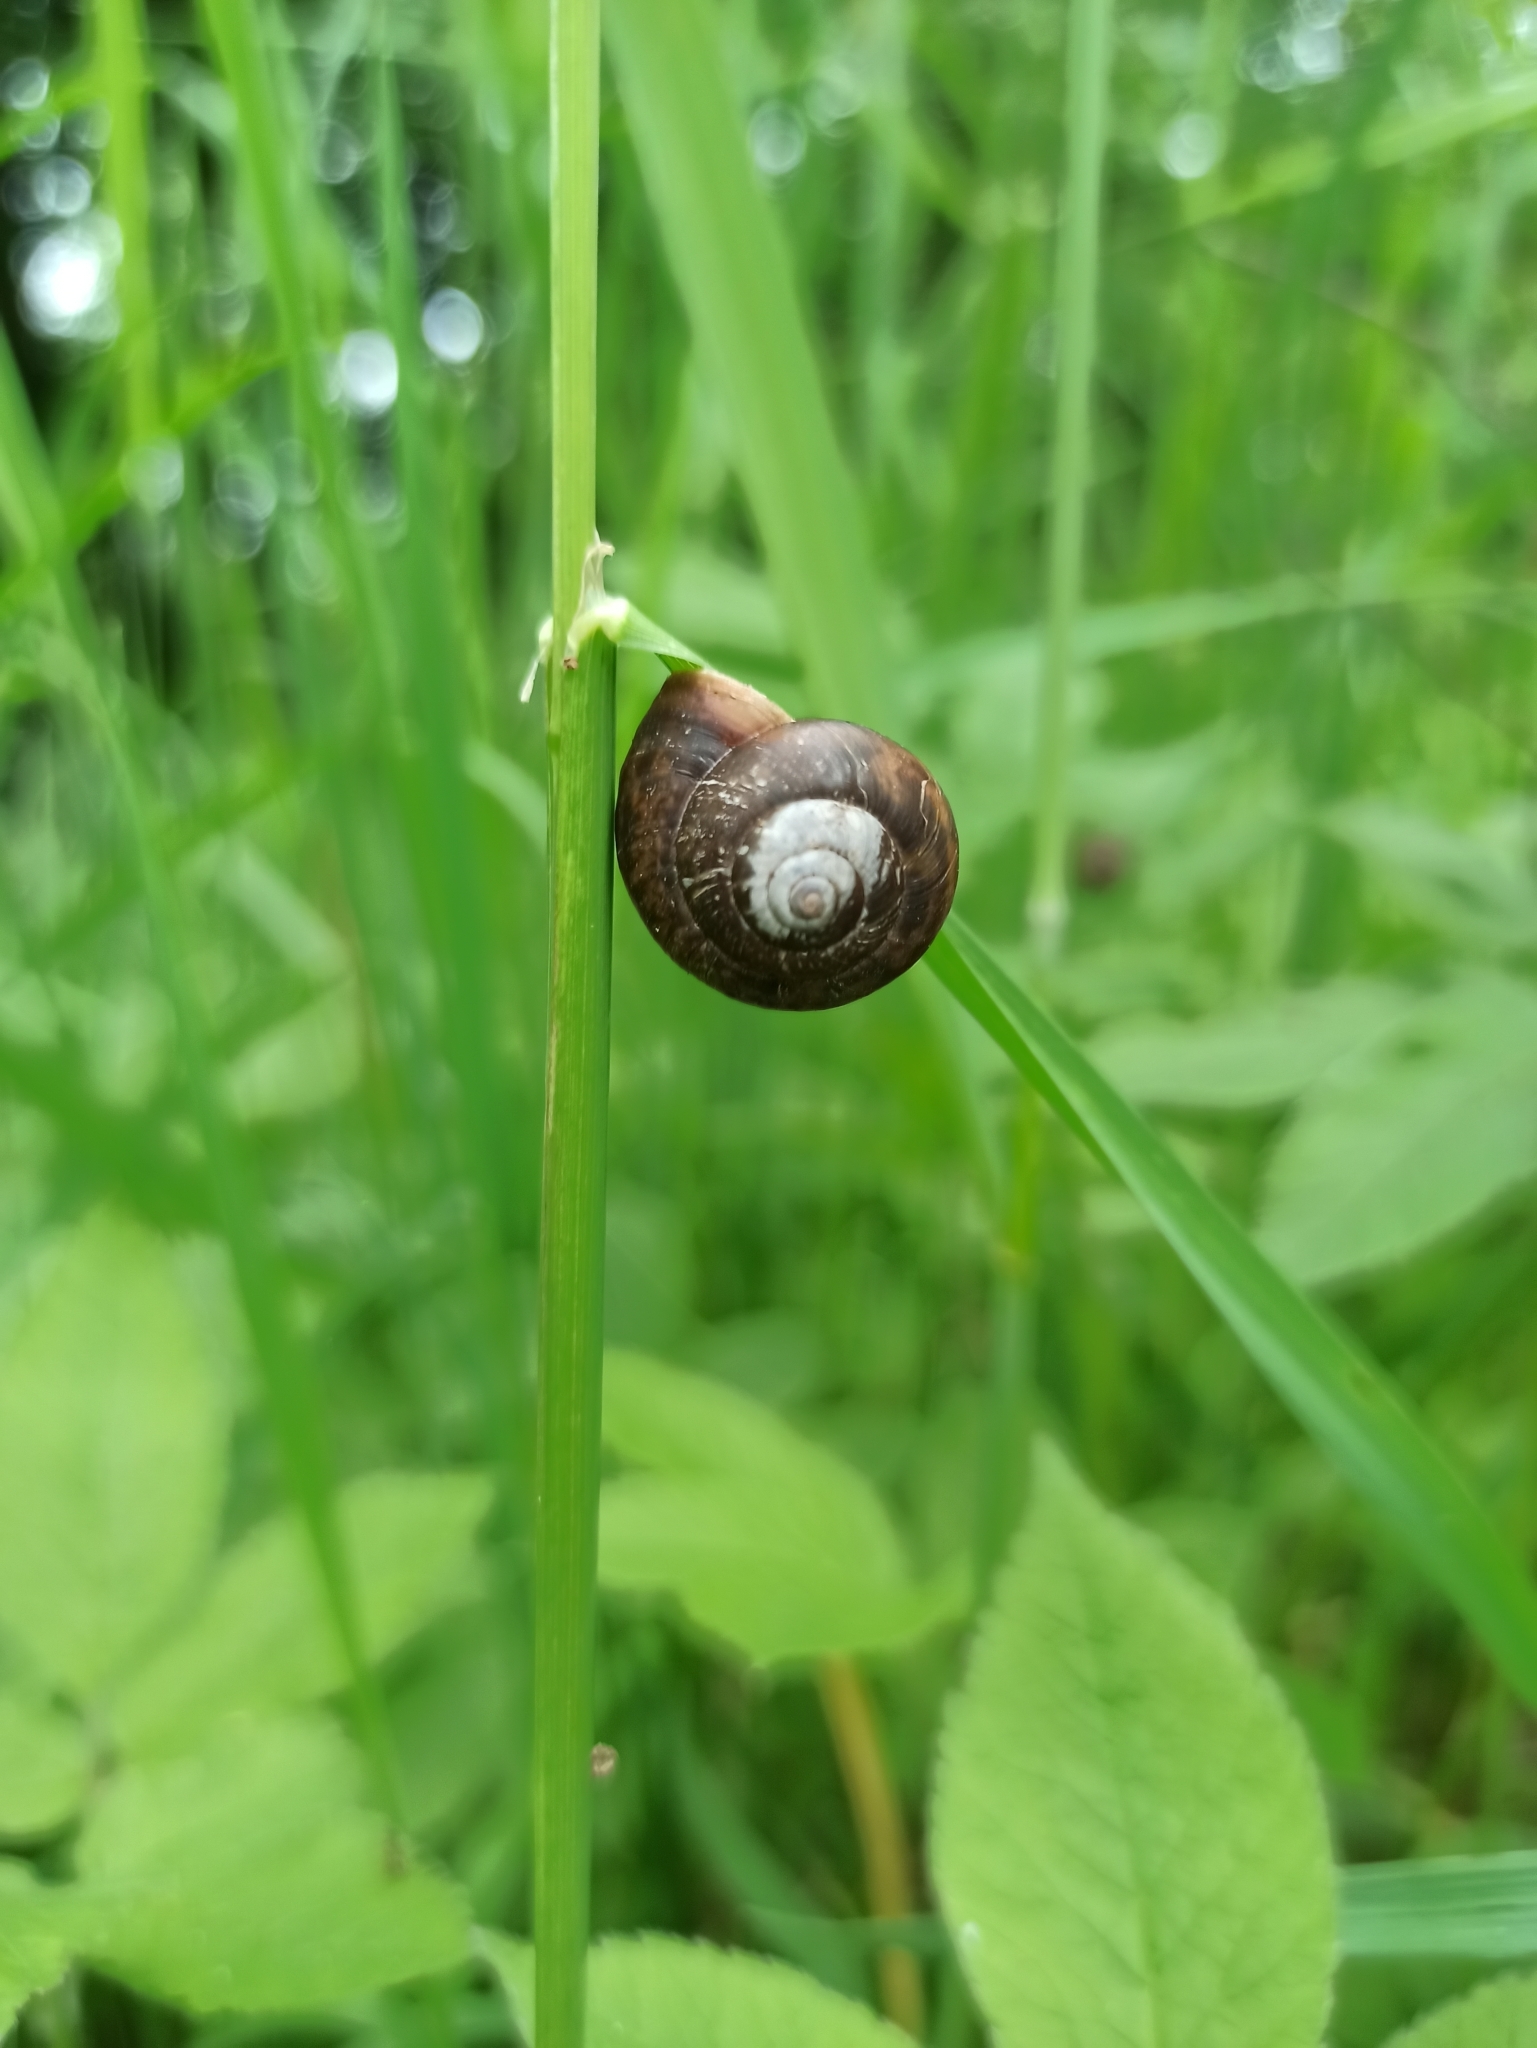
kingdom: Animalia
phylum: Mollusca
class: Gastropoda
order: Stylommatophora
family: Helicidae
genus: Arianta
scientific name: Arianta arbustorum
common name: Copse snail
